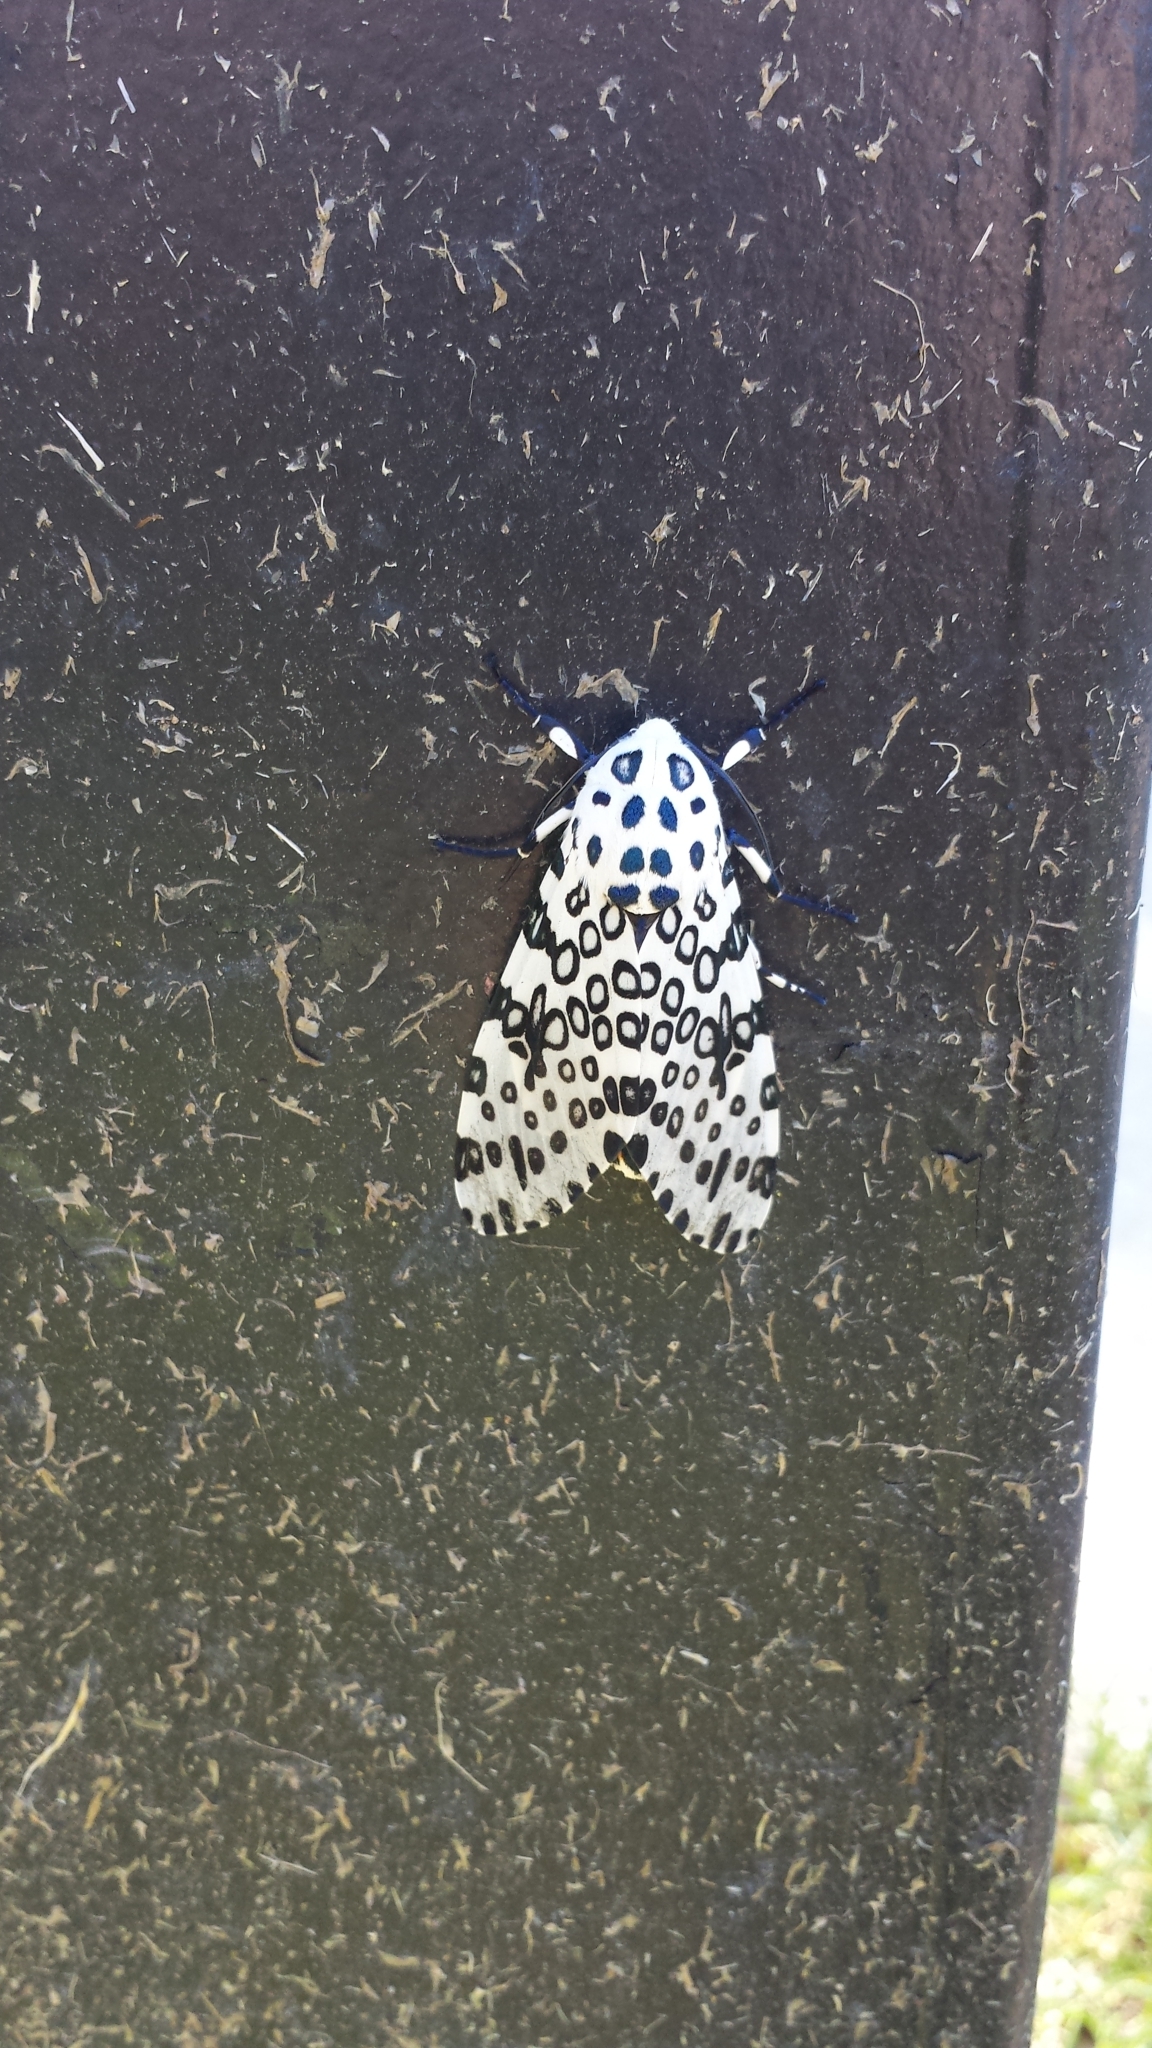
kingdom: Animalia
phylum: Arthropoda
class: Insecta
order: Lepidoptera
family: Erebidae
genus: Hypercompe
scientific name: Hypercompe scribonia
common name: Giant leopard moth
